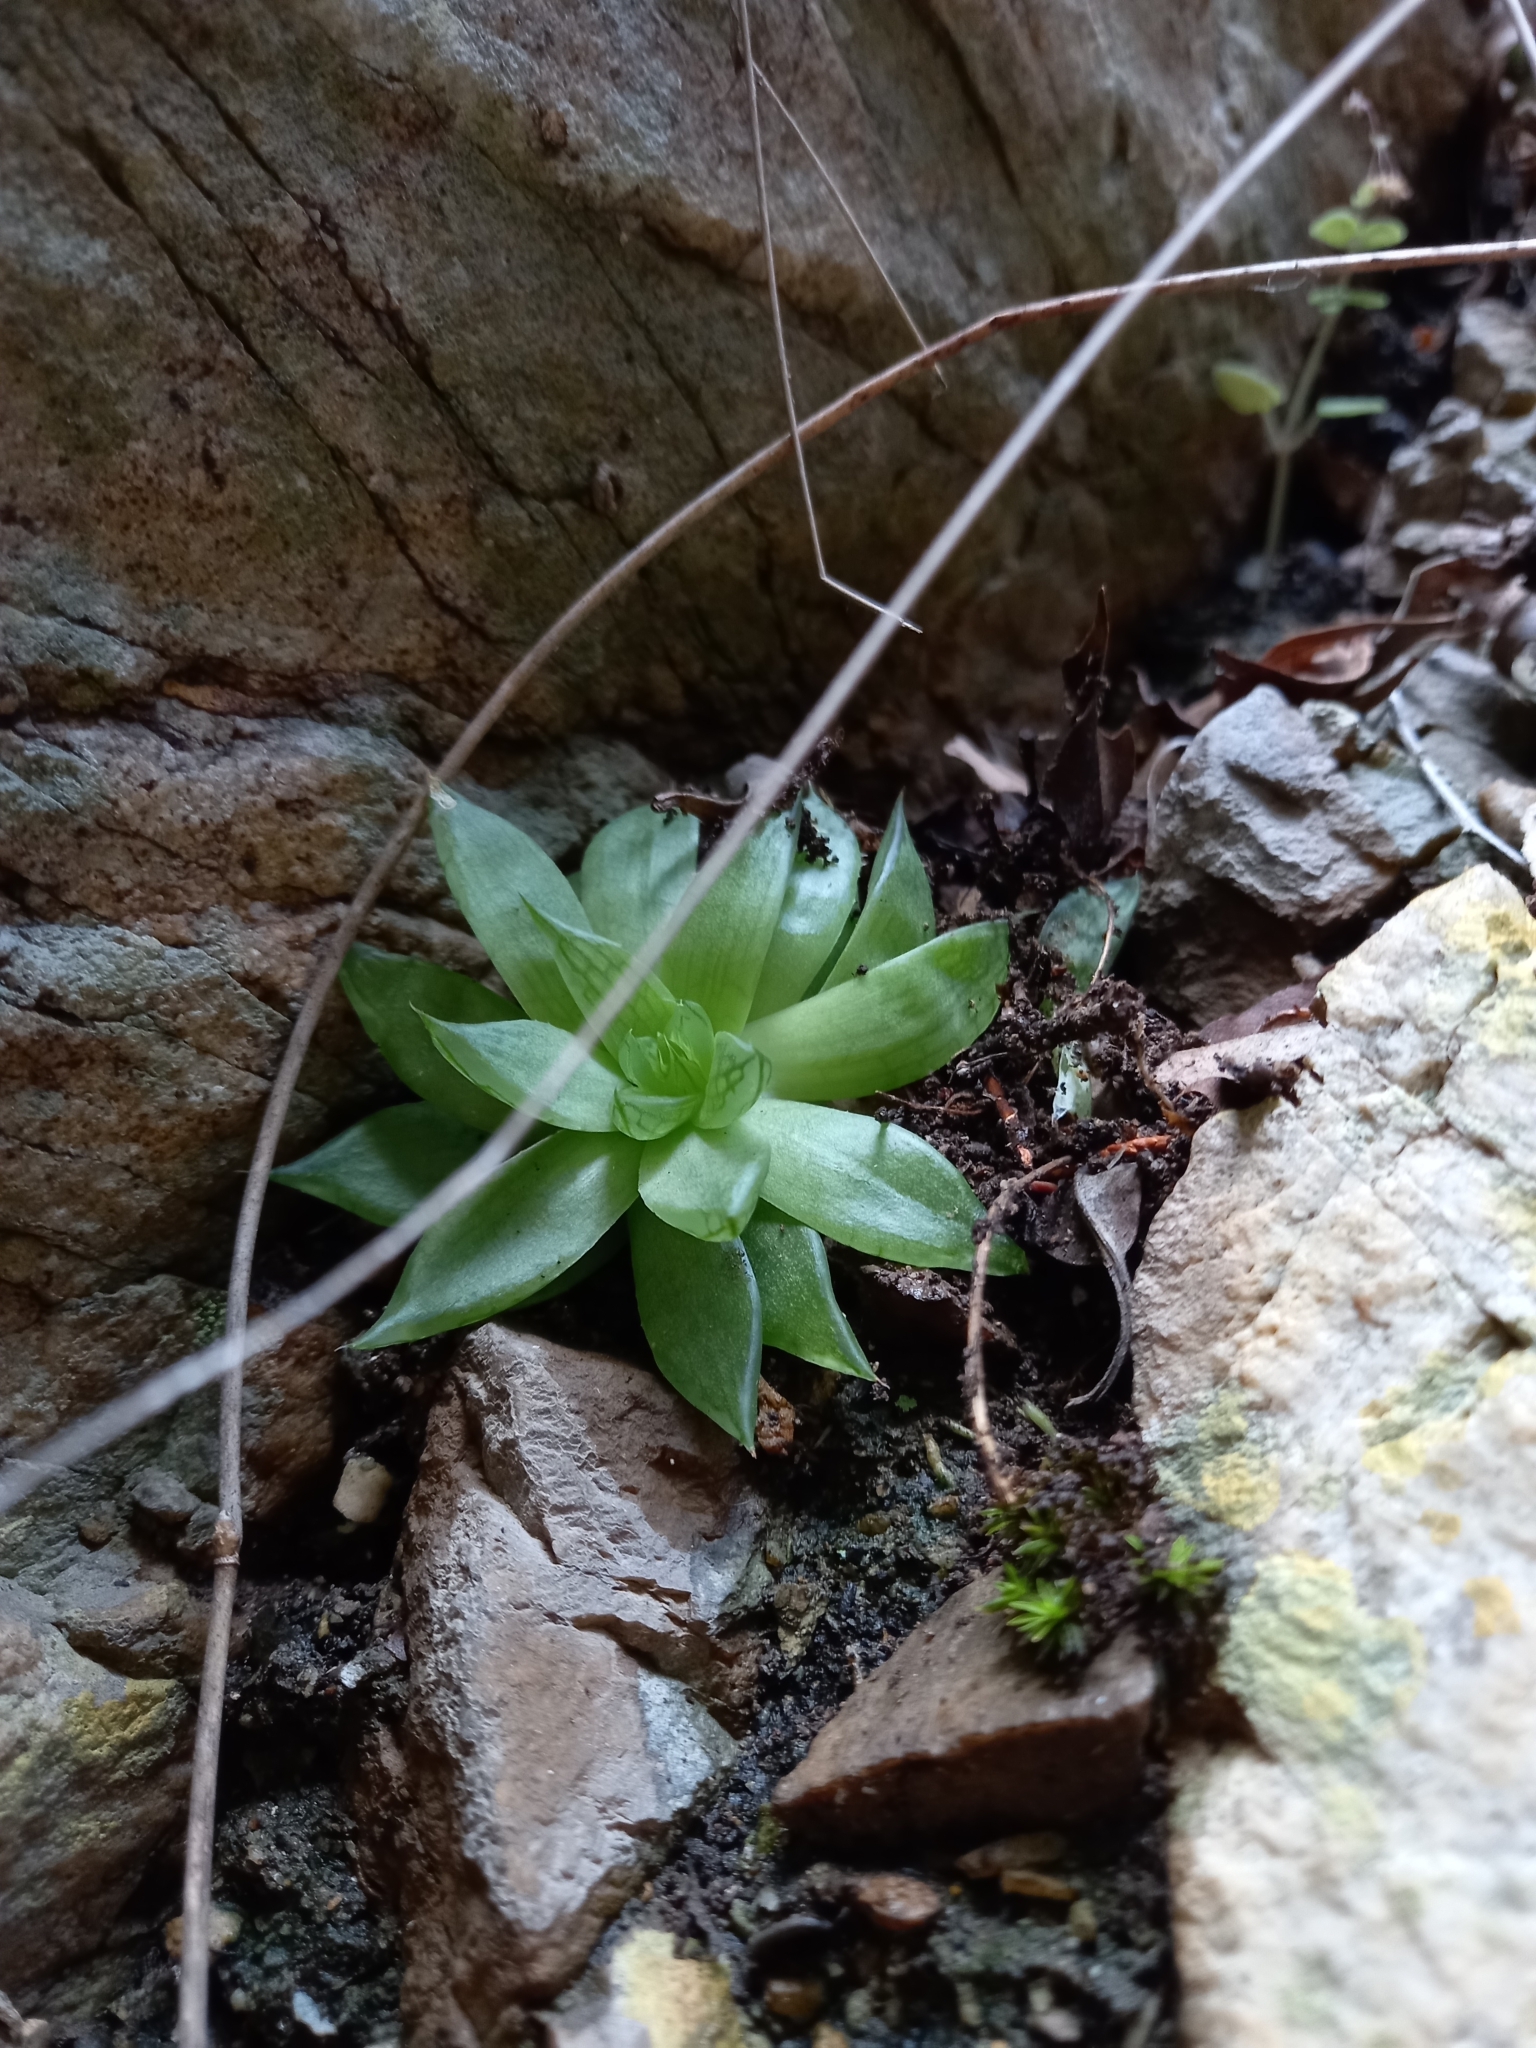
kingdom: Plantae
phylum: Tracheophyta
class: Liliopsida
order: Asparagales
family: Asphodelaceae
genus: Haworthia
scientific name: Haworthia cooperi
